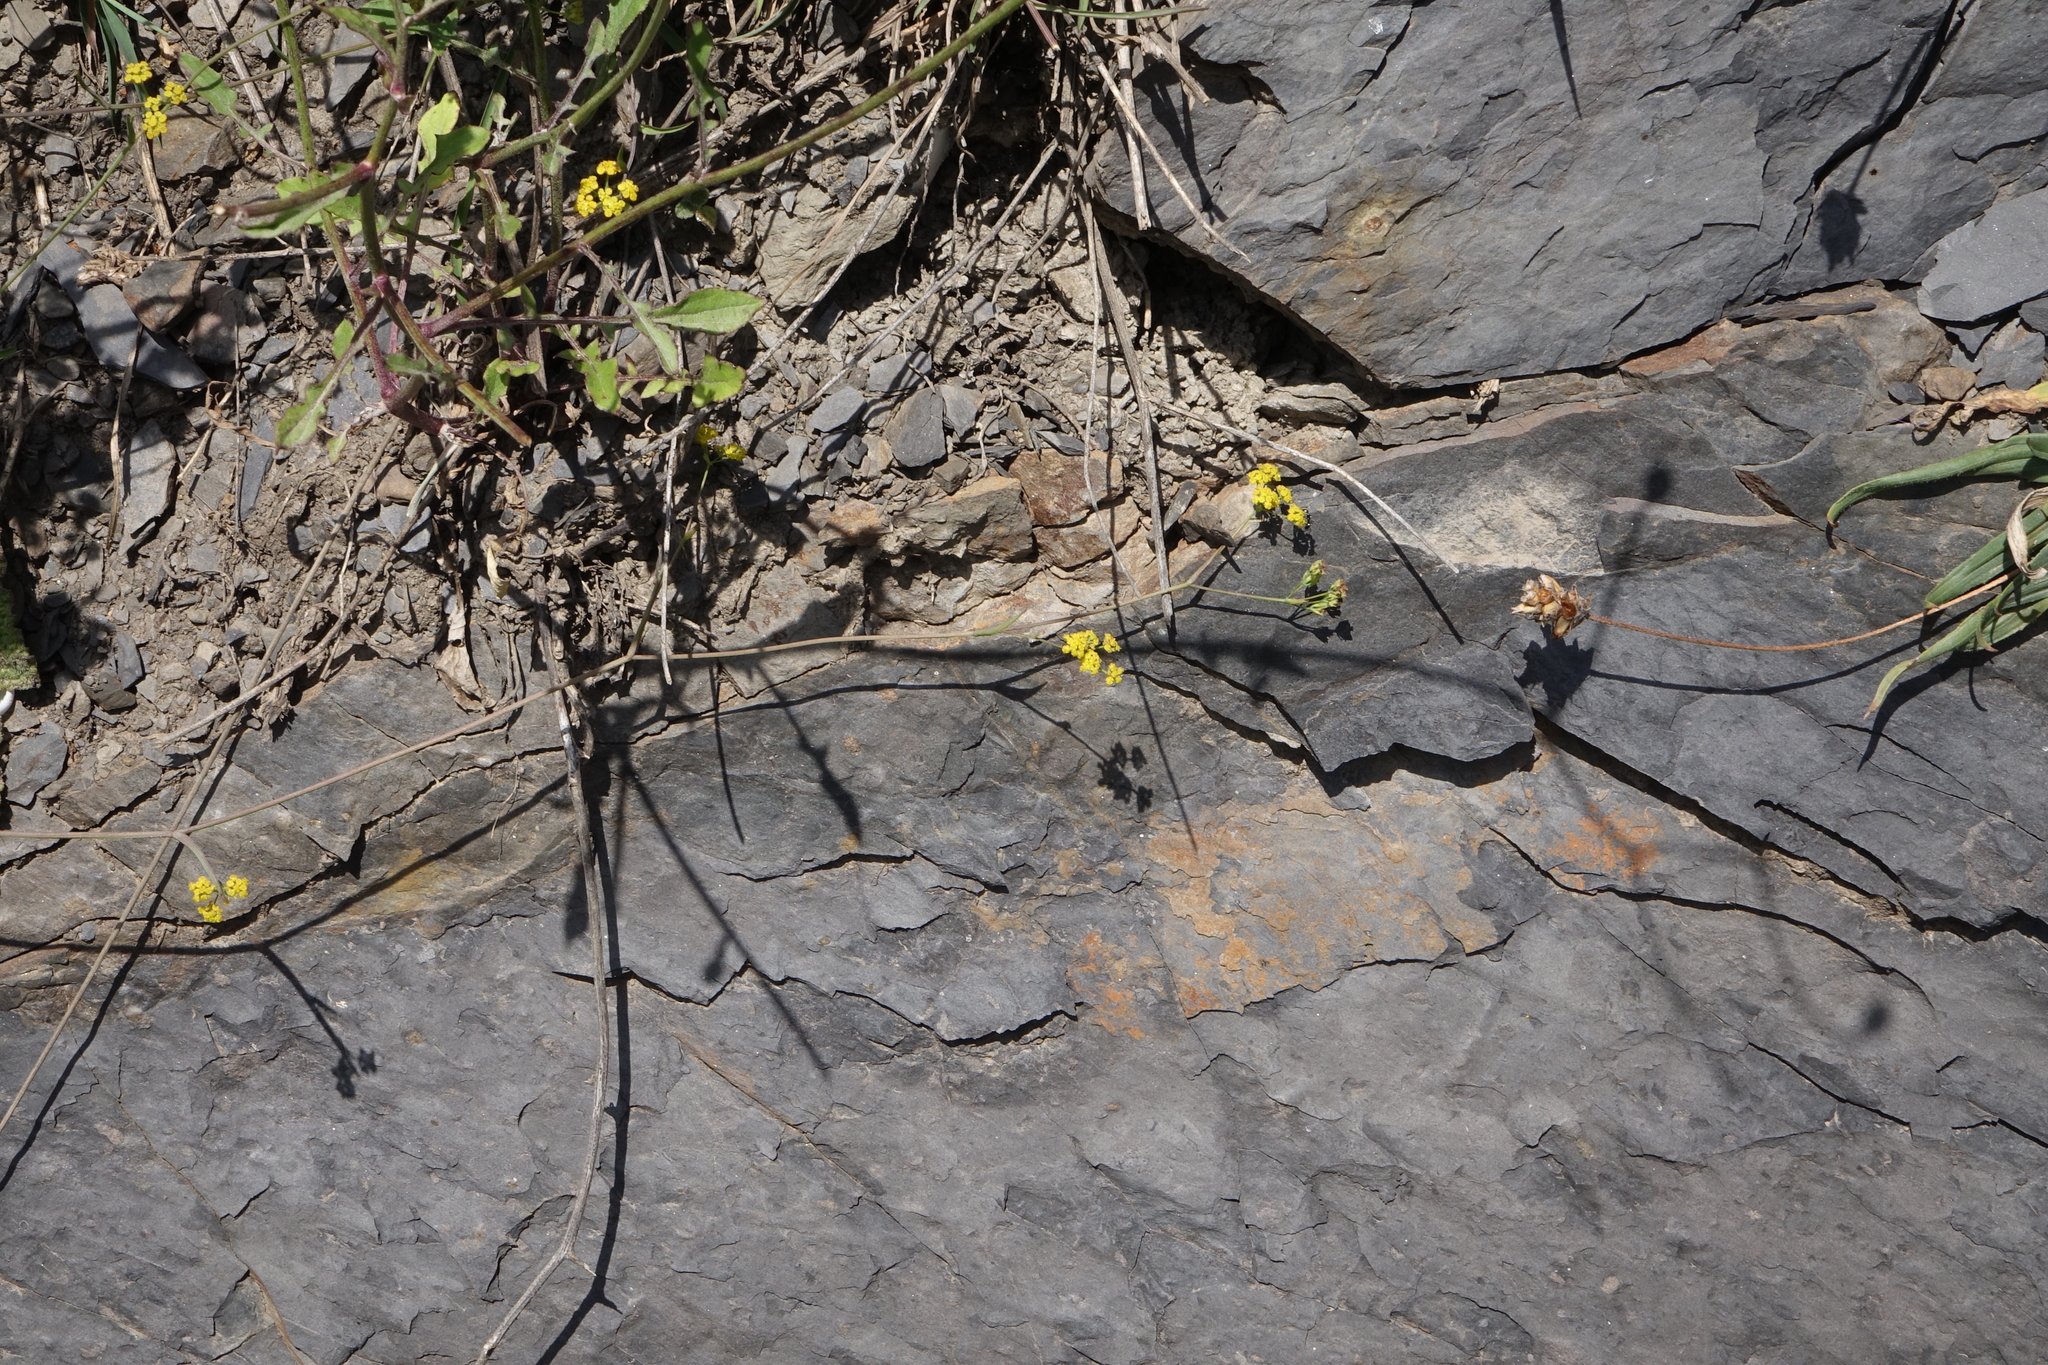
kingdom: Plantae
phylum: Tracheophyta
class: Magnoliopsida
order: Apiales
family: Apiaceae
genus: Bupleurum
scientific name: Bupleurum polyphyllum
